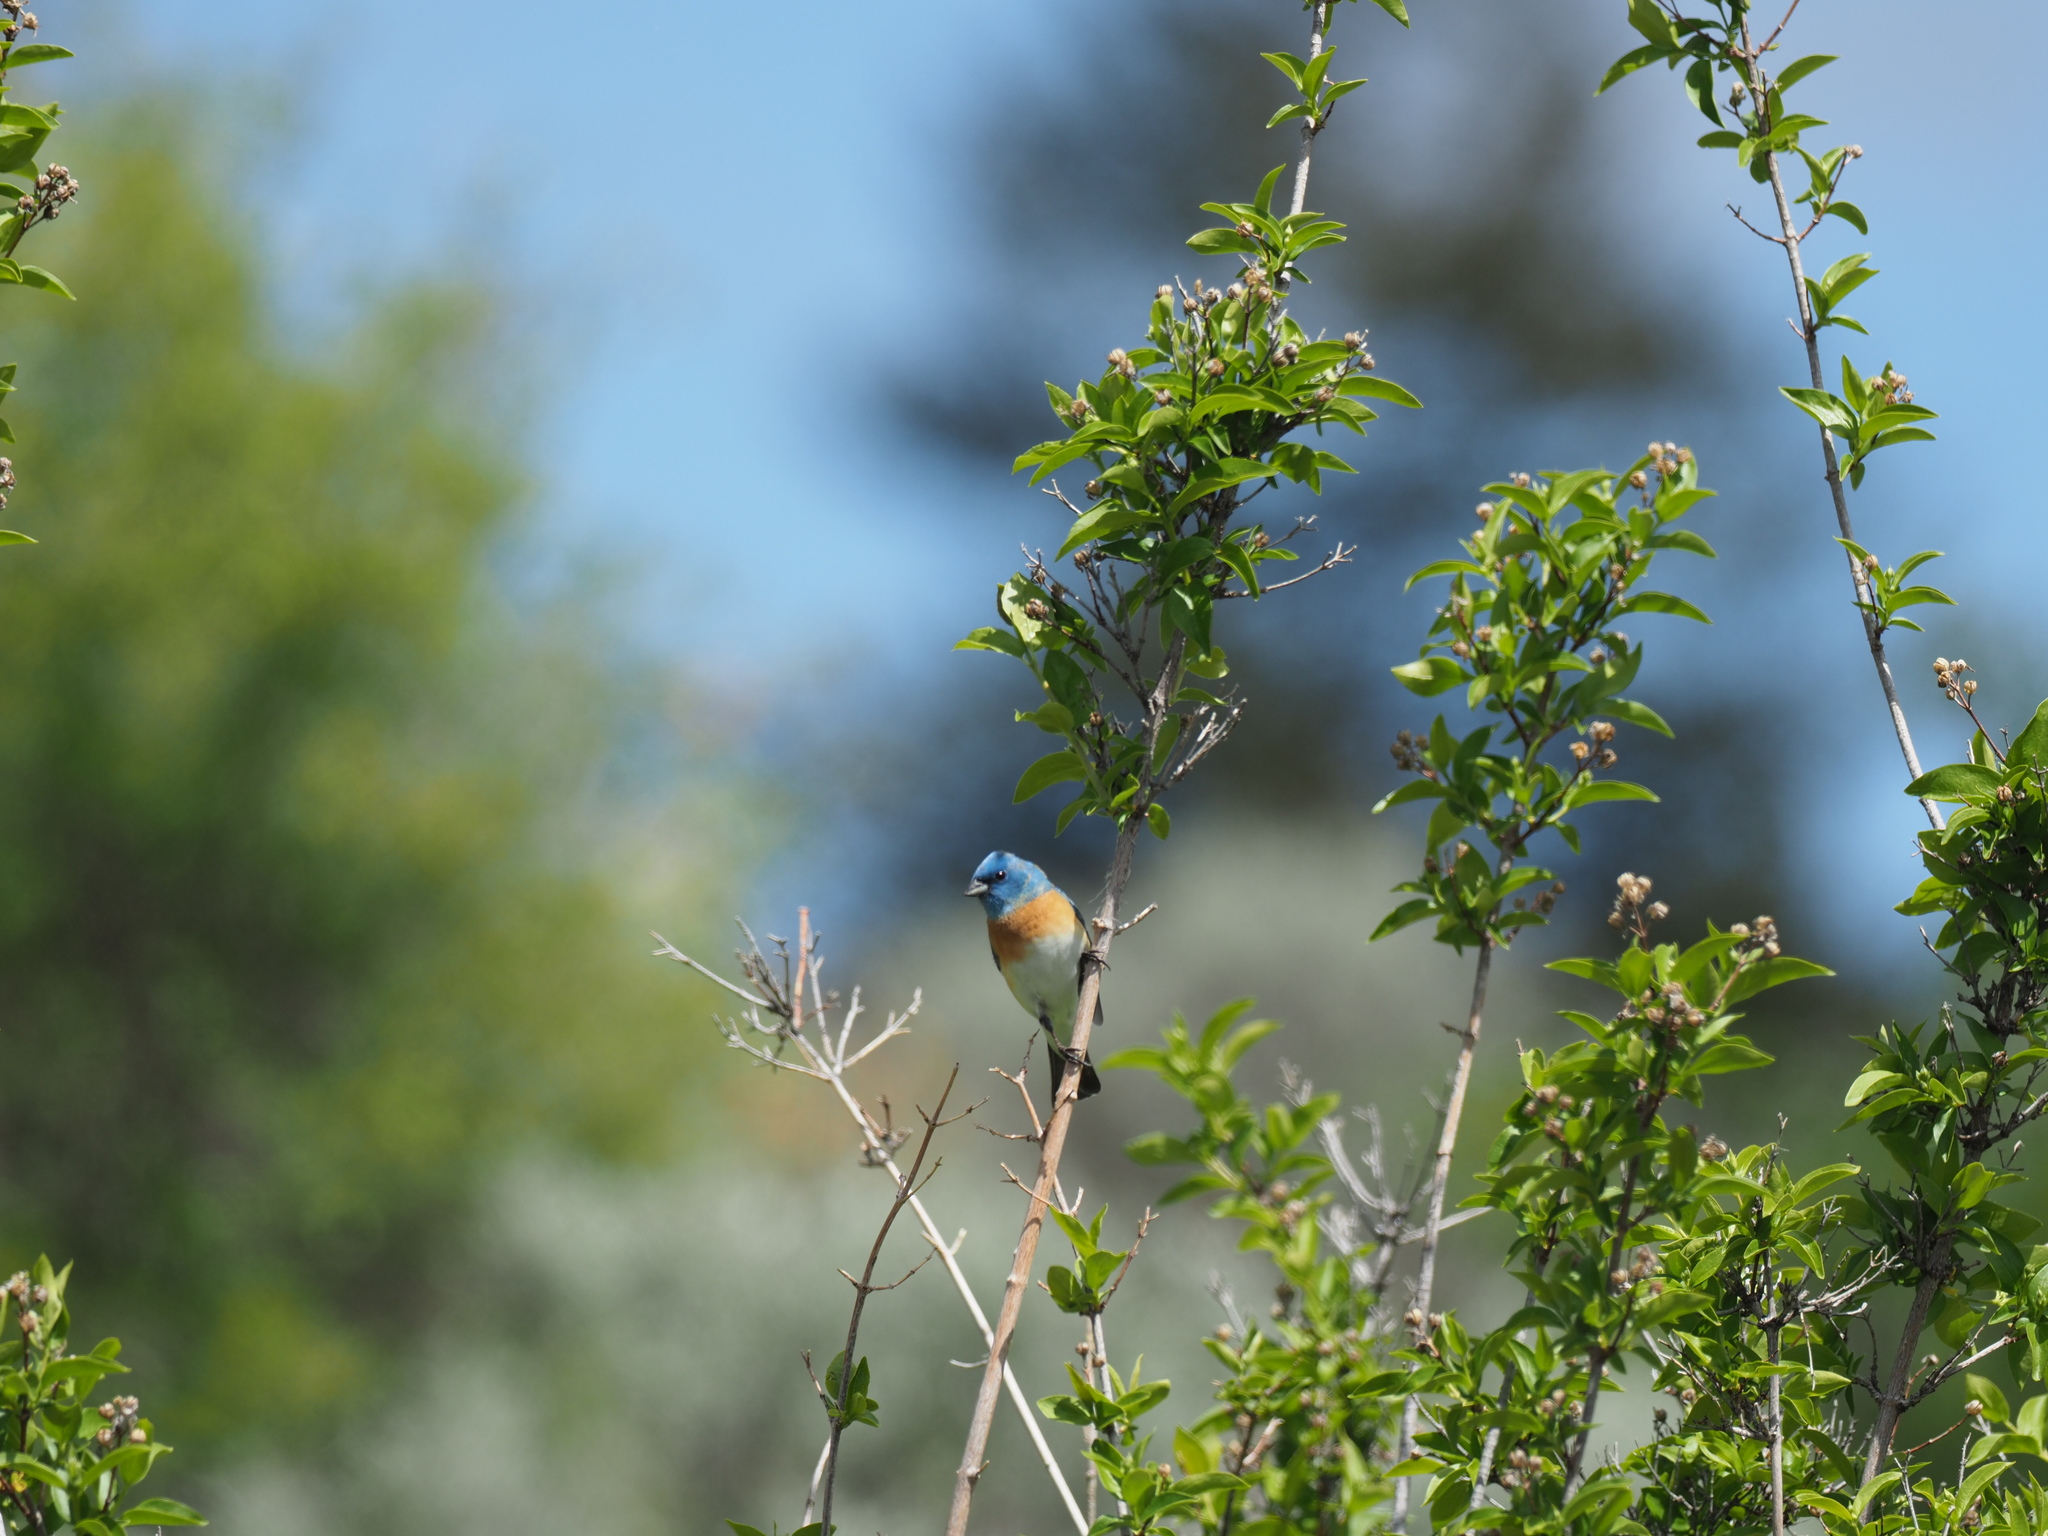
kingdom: Animalia
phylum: Chordata
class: Aves
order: Passeriformes
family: Cardinalidae
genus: Passerina
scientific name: Passerina amoena
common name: Lazuli bunting
